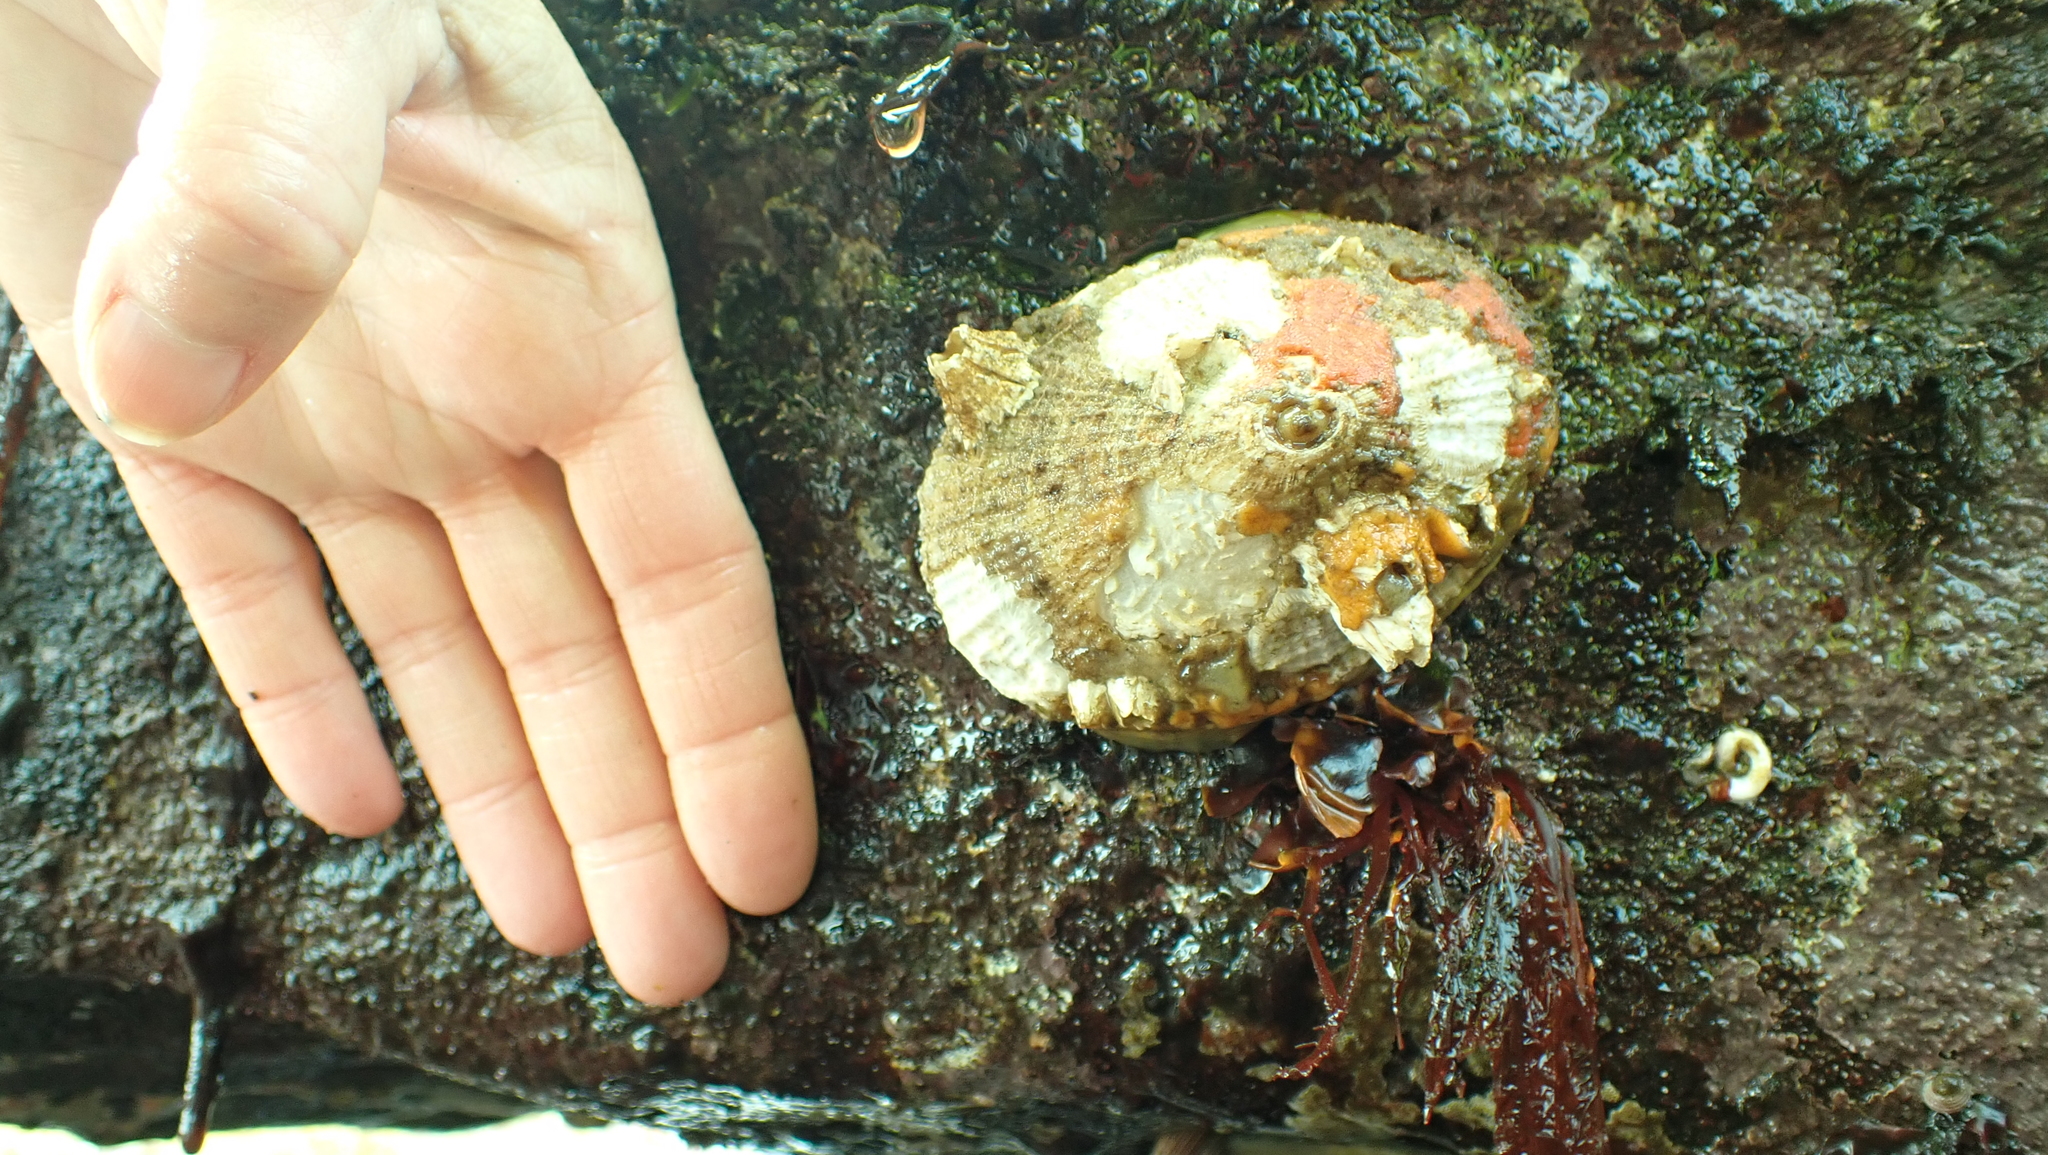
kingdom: Animalia
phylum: Mollusca
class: Gastropoda
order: Lepetellida
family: Fissurellidae
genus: Diodora
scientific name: Diodora aspera
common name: Rough keyhole limpet
